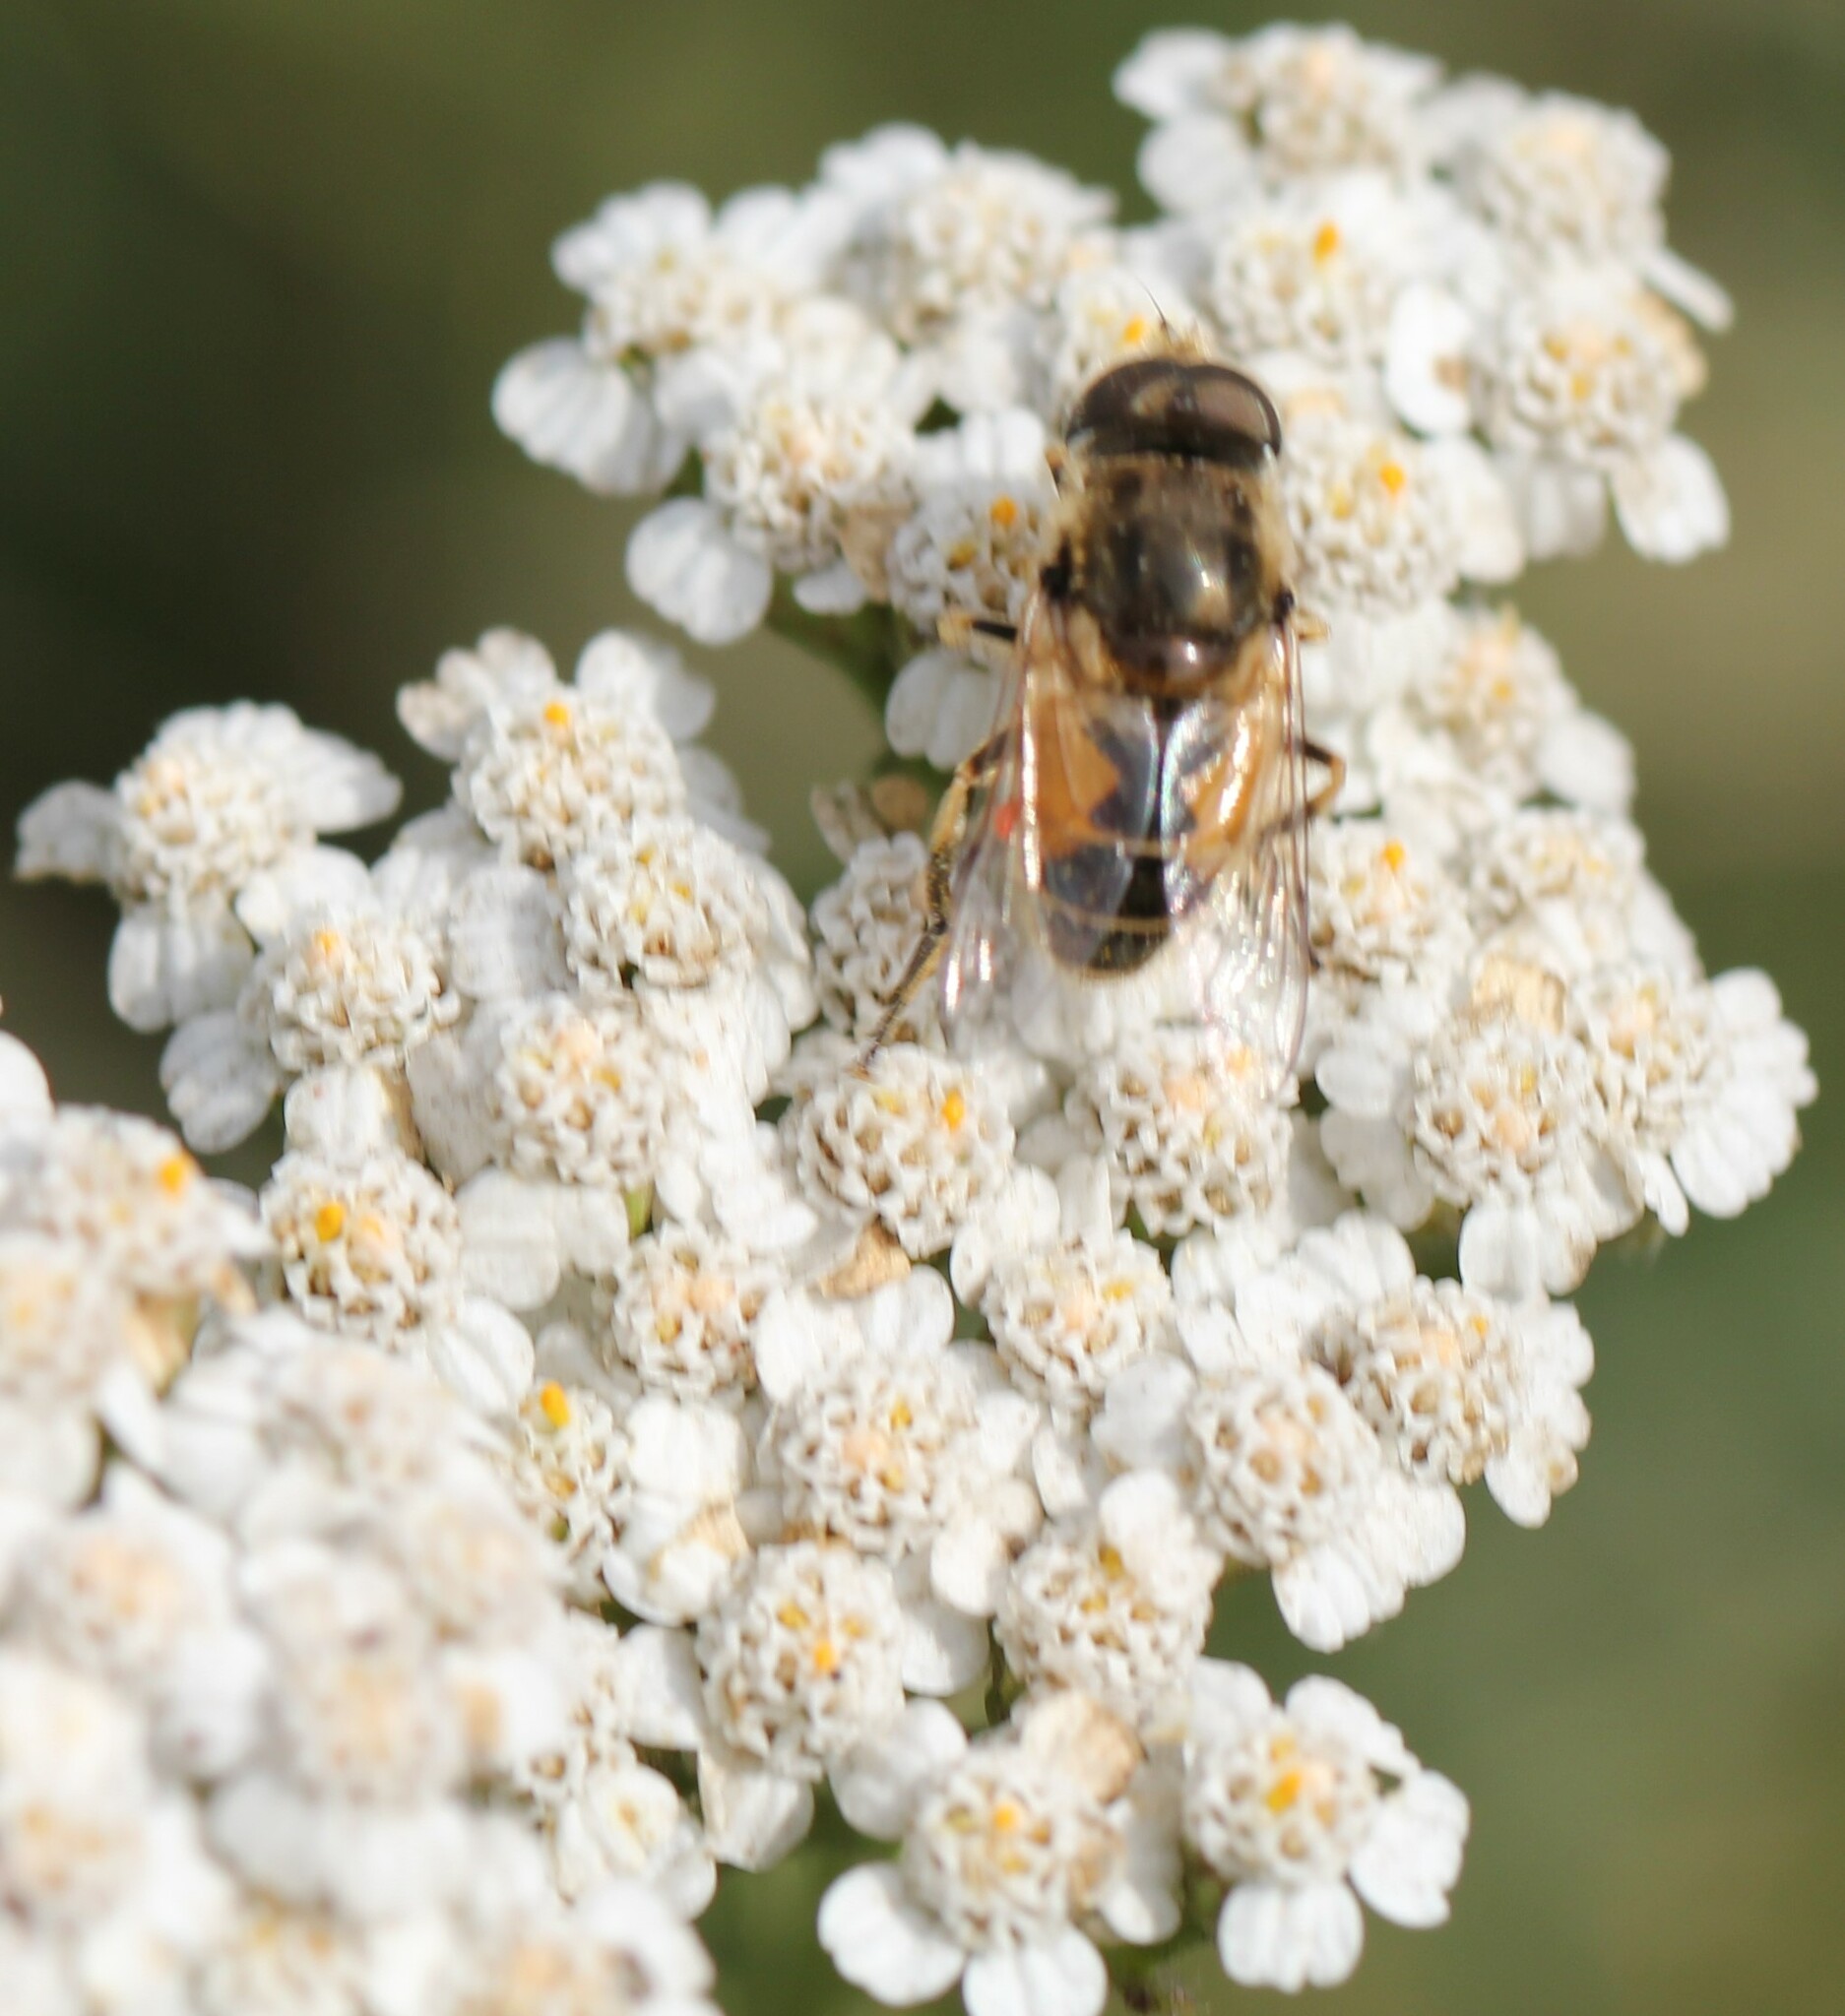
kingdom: Animalia
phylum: Arthropoda
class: Insecta
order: Diptera
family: Syrphidae
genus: Eristalis
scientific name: Eristalis arbustorum
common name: Hover fly
